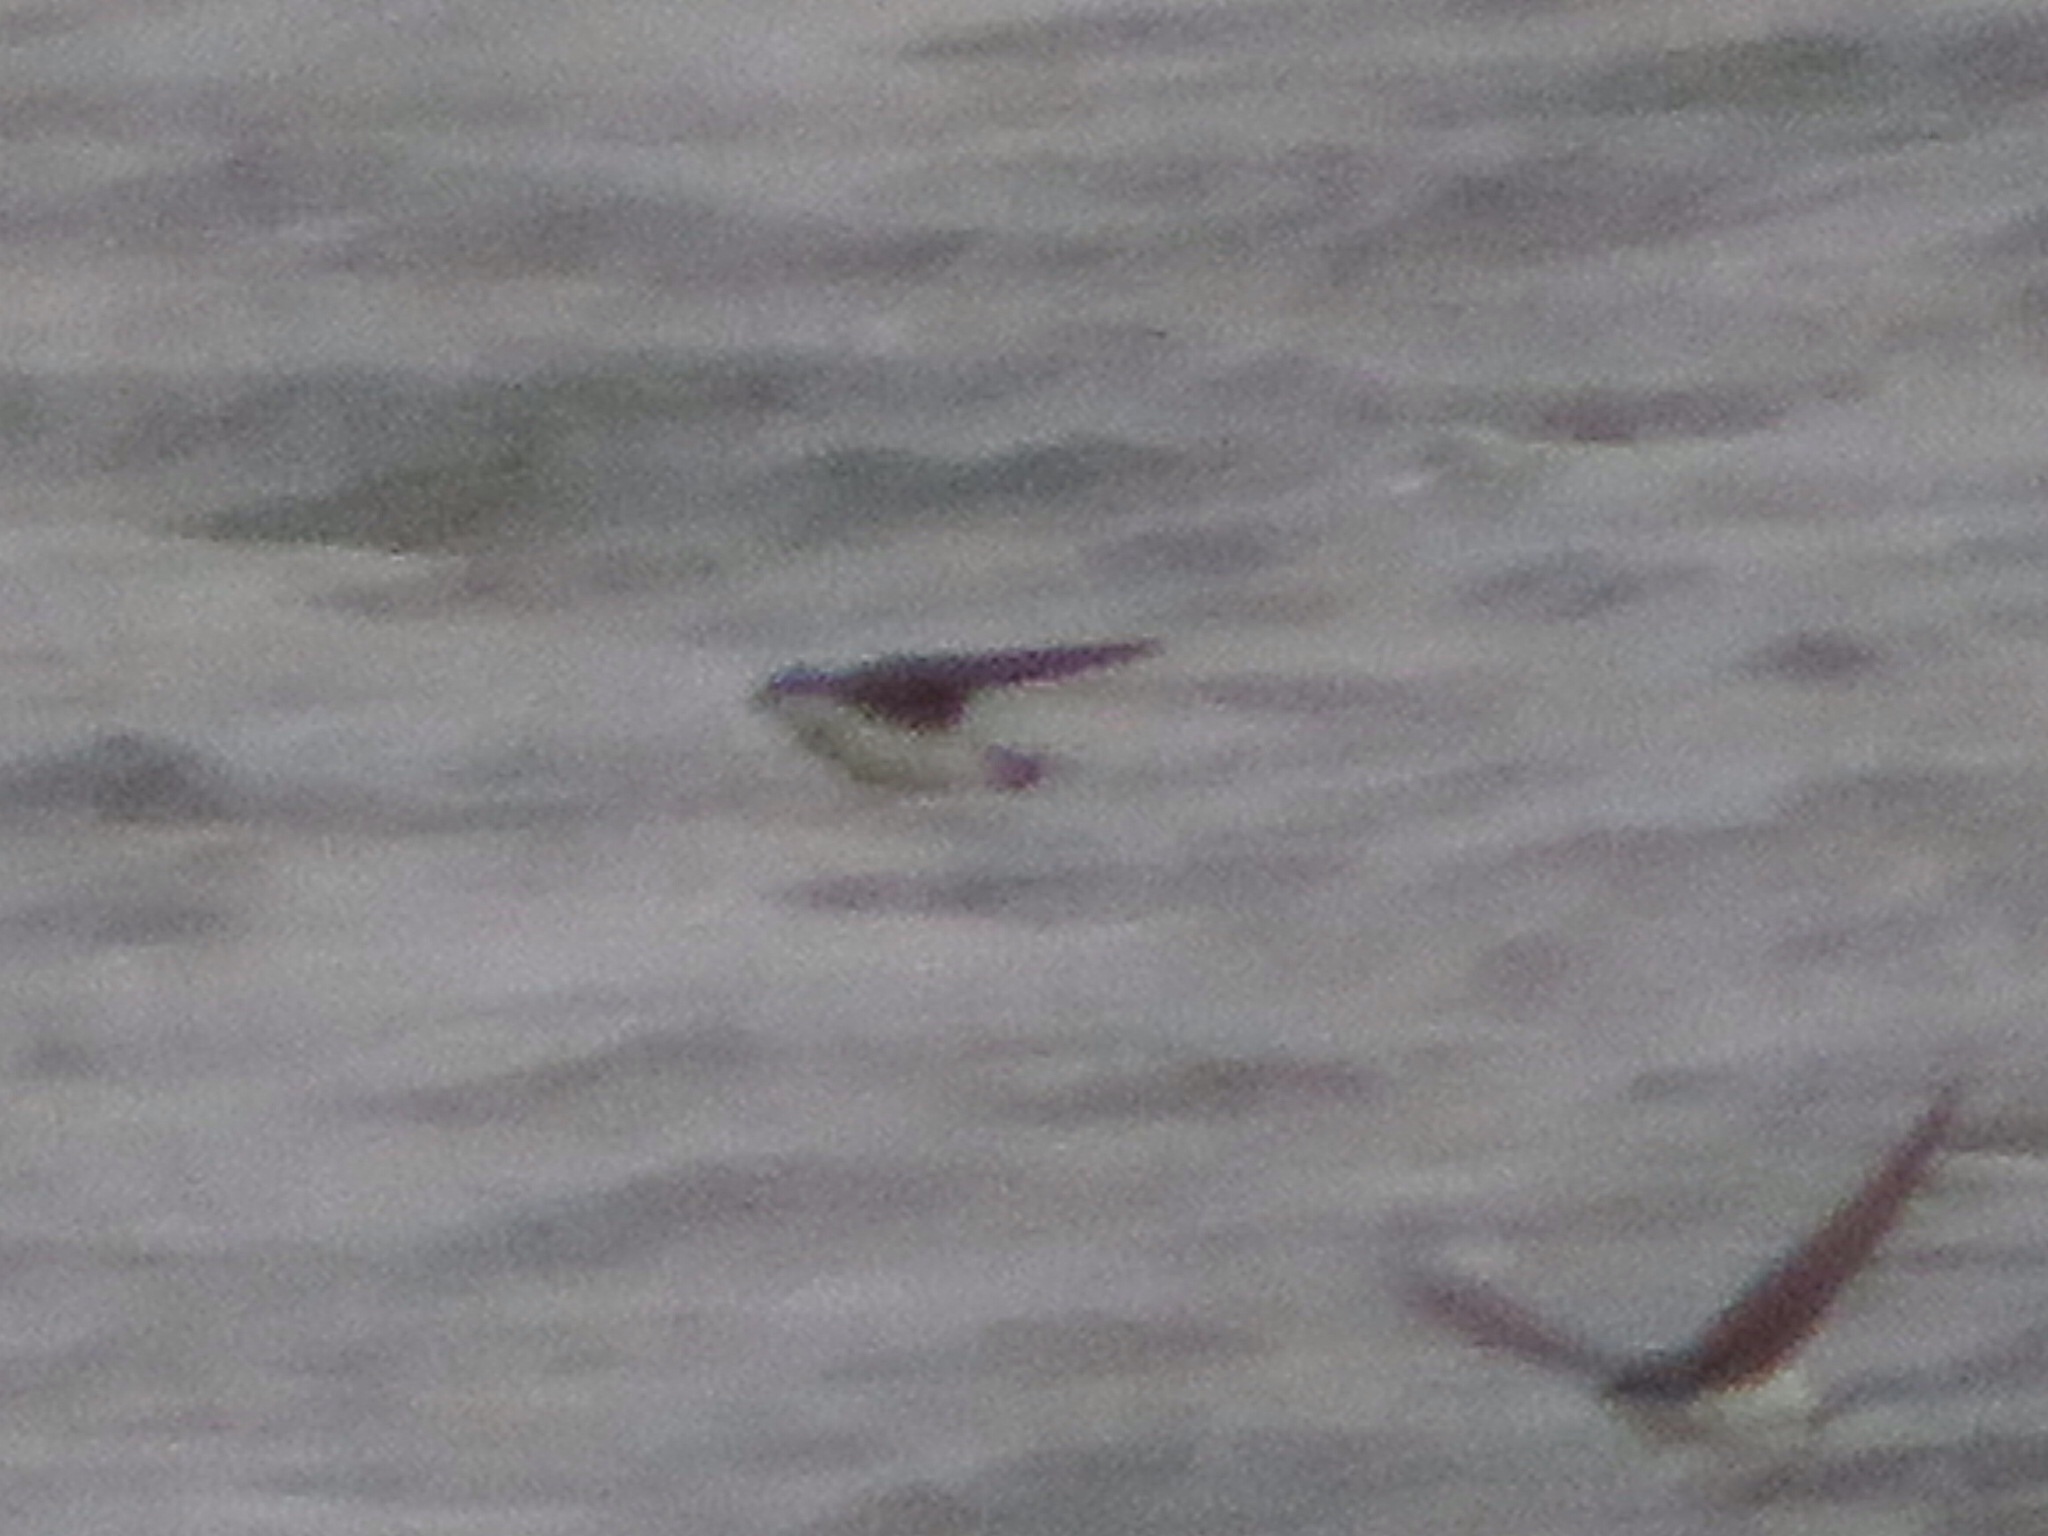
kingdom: Animalia
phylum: Chordata
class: Aves
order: Passeriformes
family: Hirundinidae
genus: Tachycineta
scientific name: Tachycineta bicolor
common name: Tree swallow
